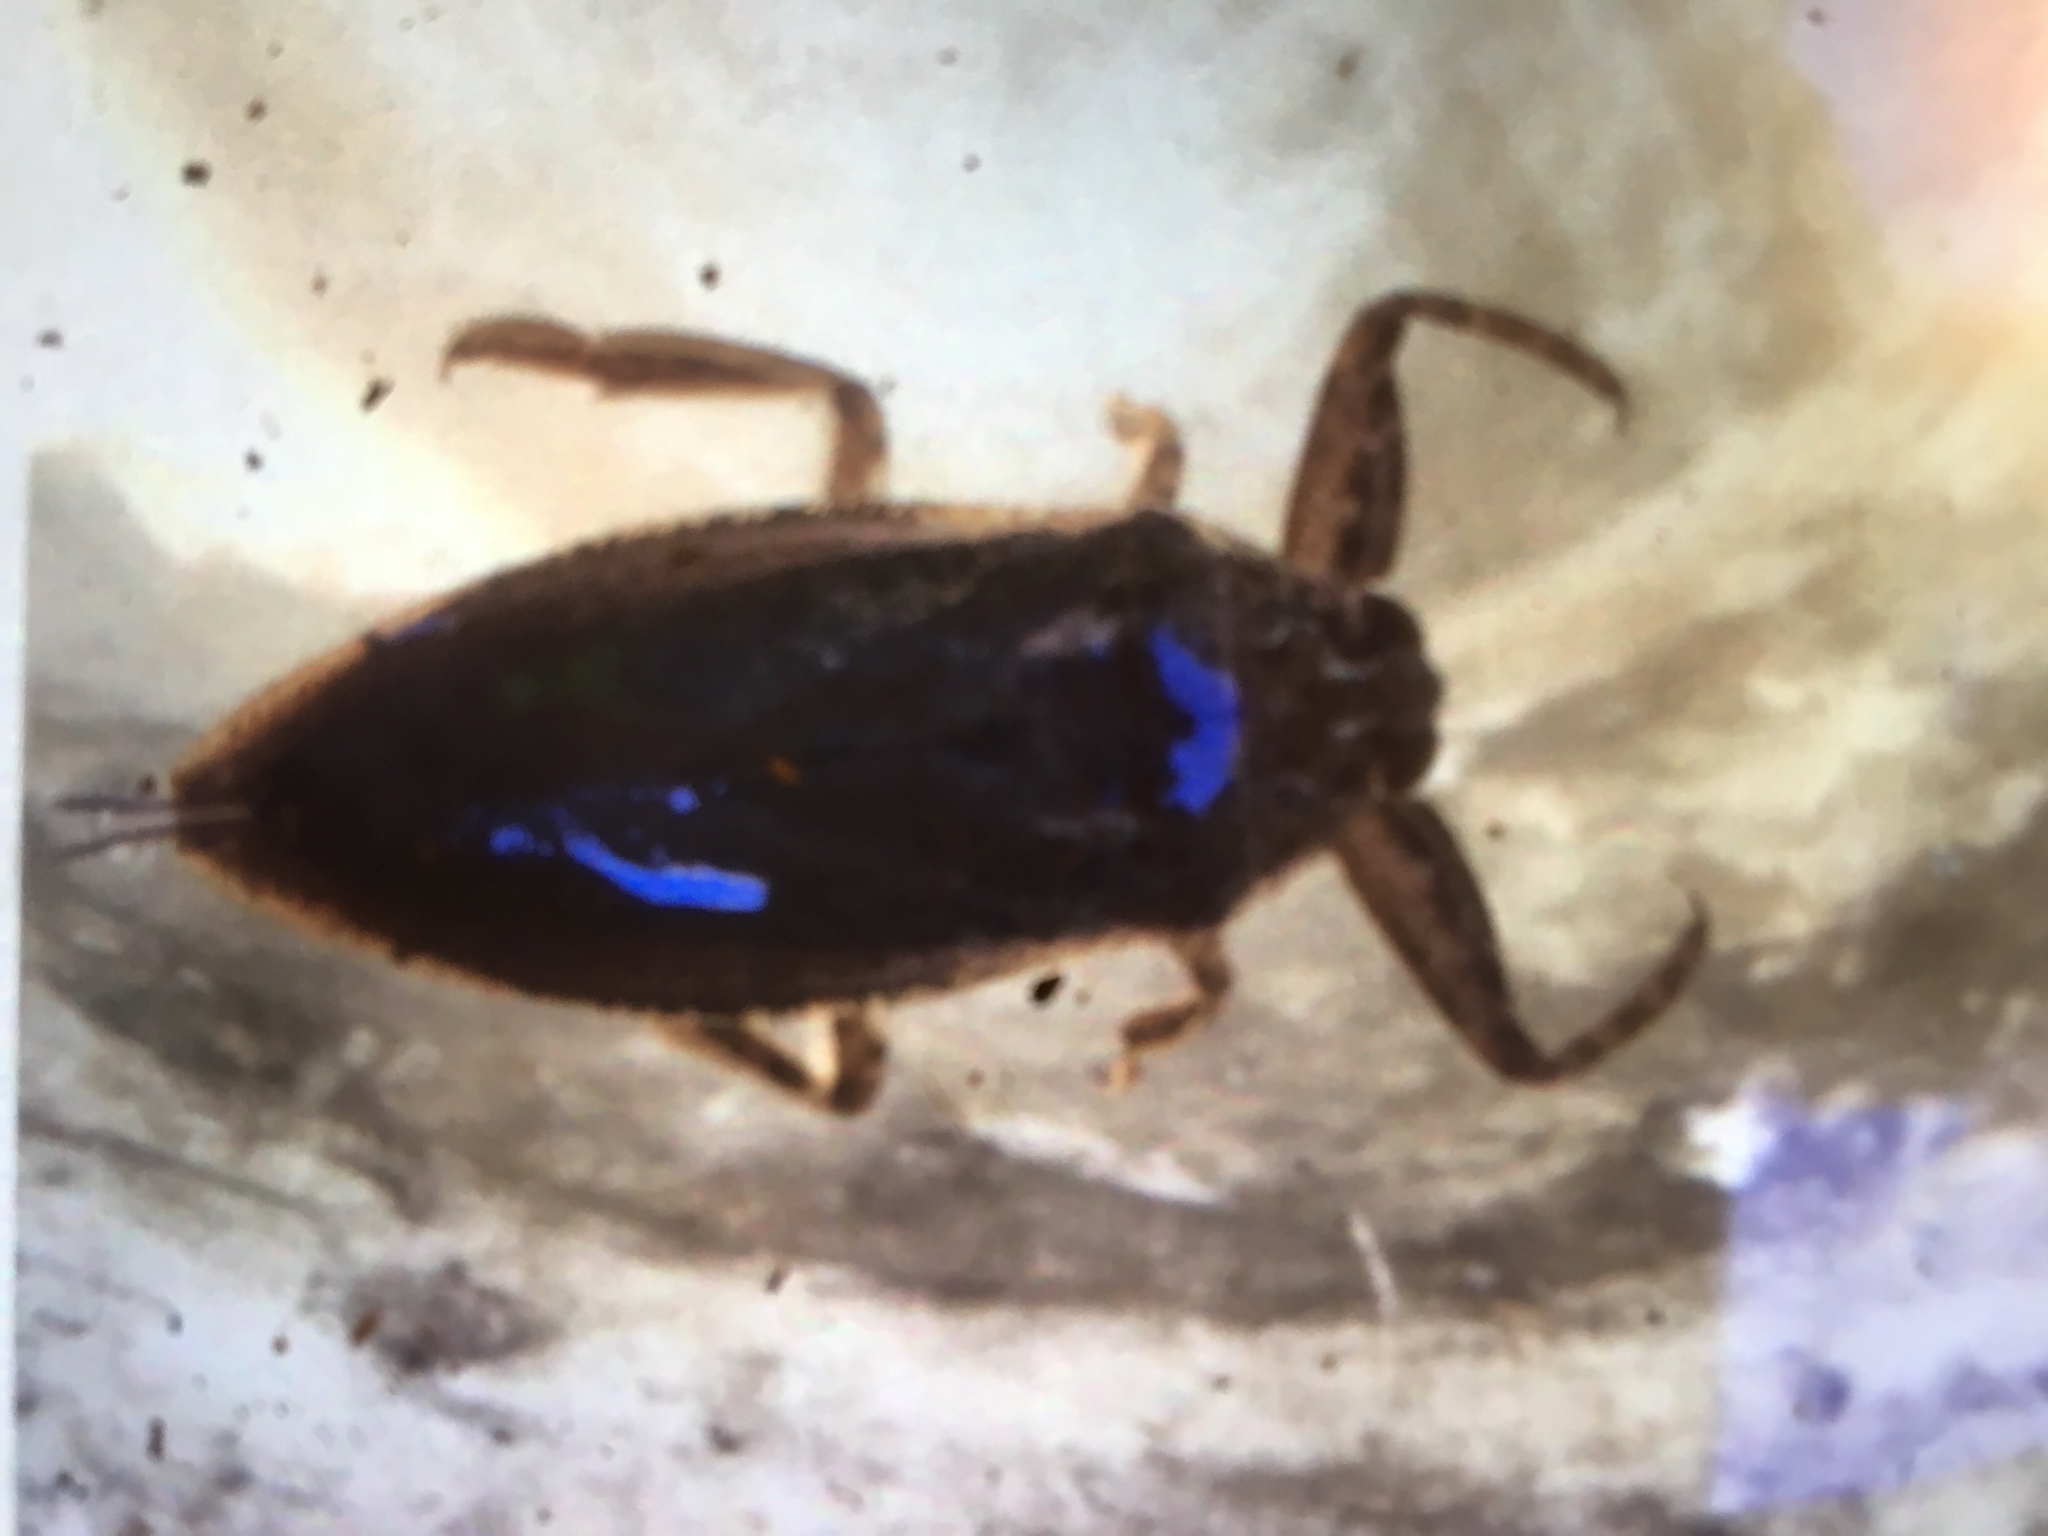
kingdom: Animalia
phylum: Arthropoda
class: Insecta
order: Hemiptera
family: Belostomatidae
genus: Lethocerus
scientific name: Lethocerus americanus
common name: Giant water bug
